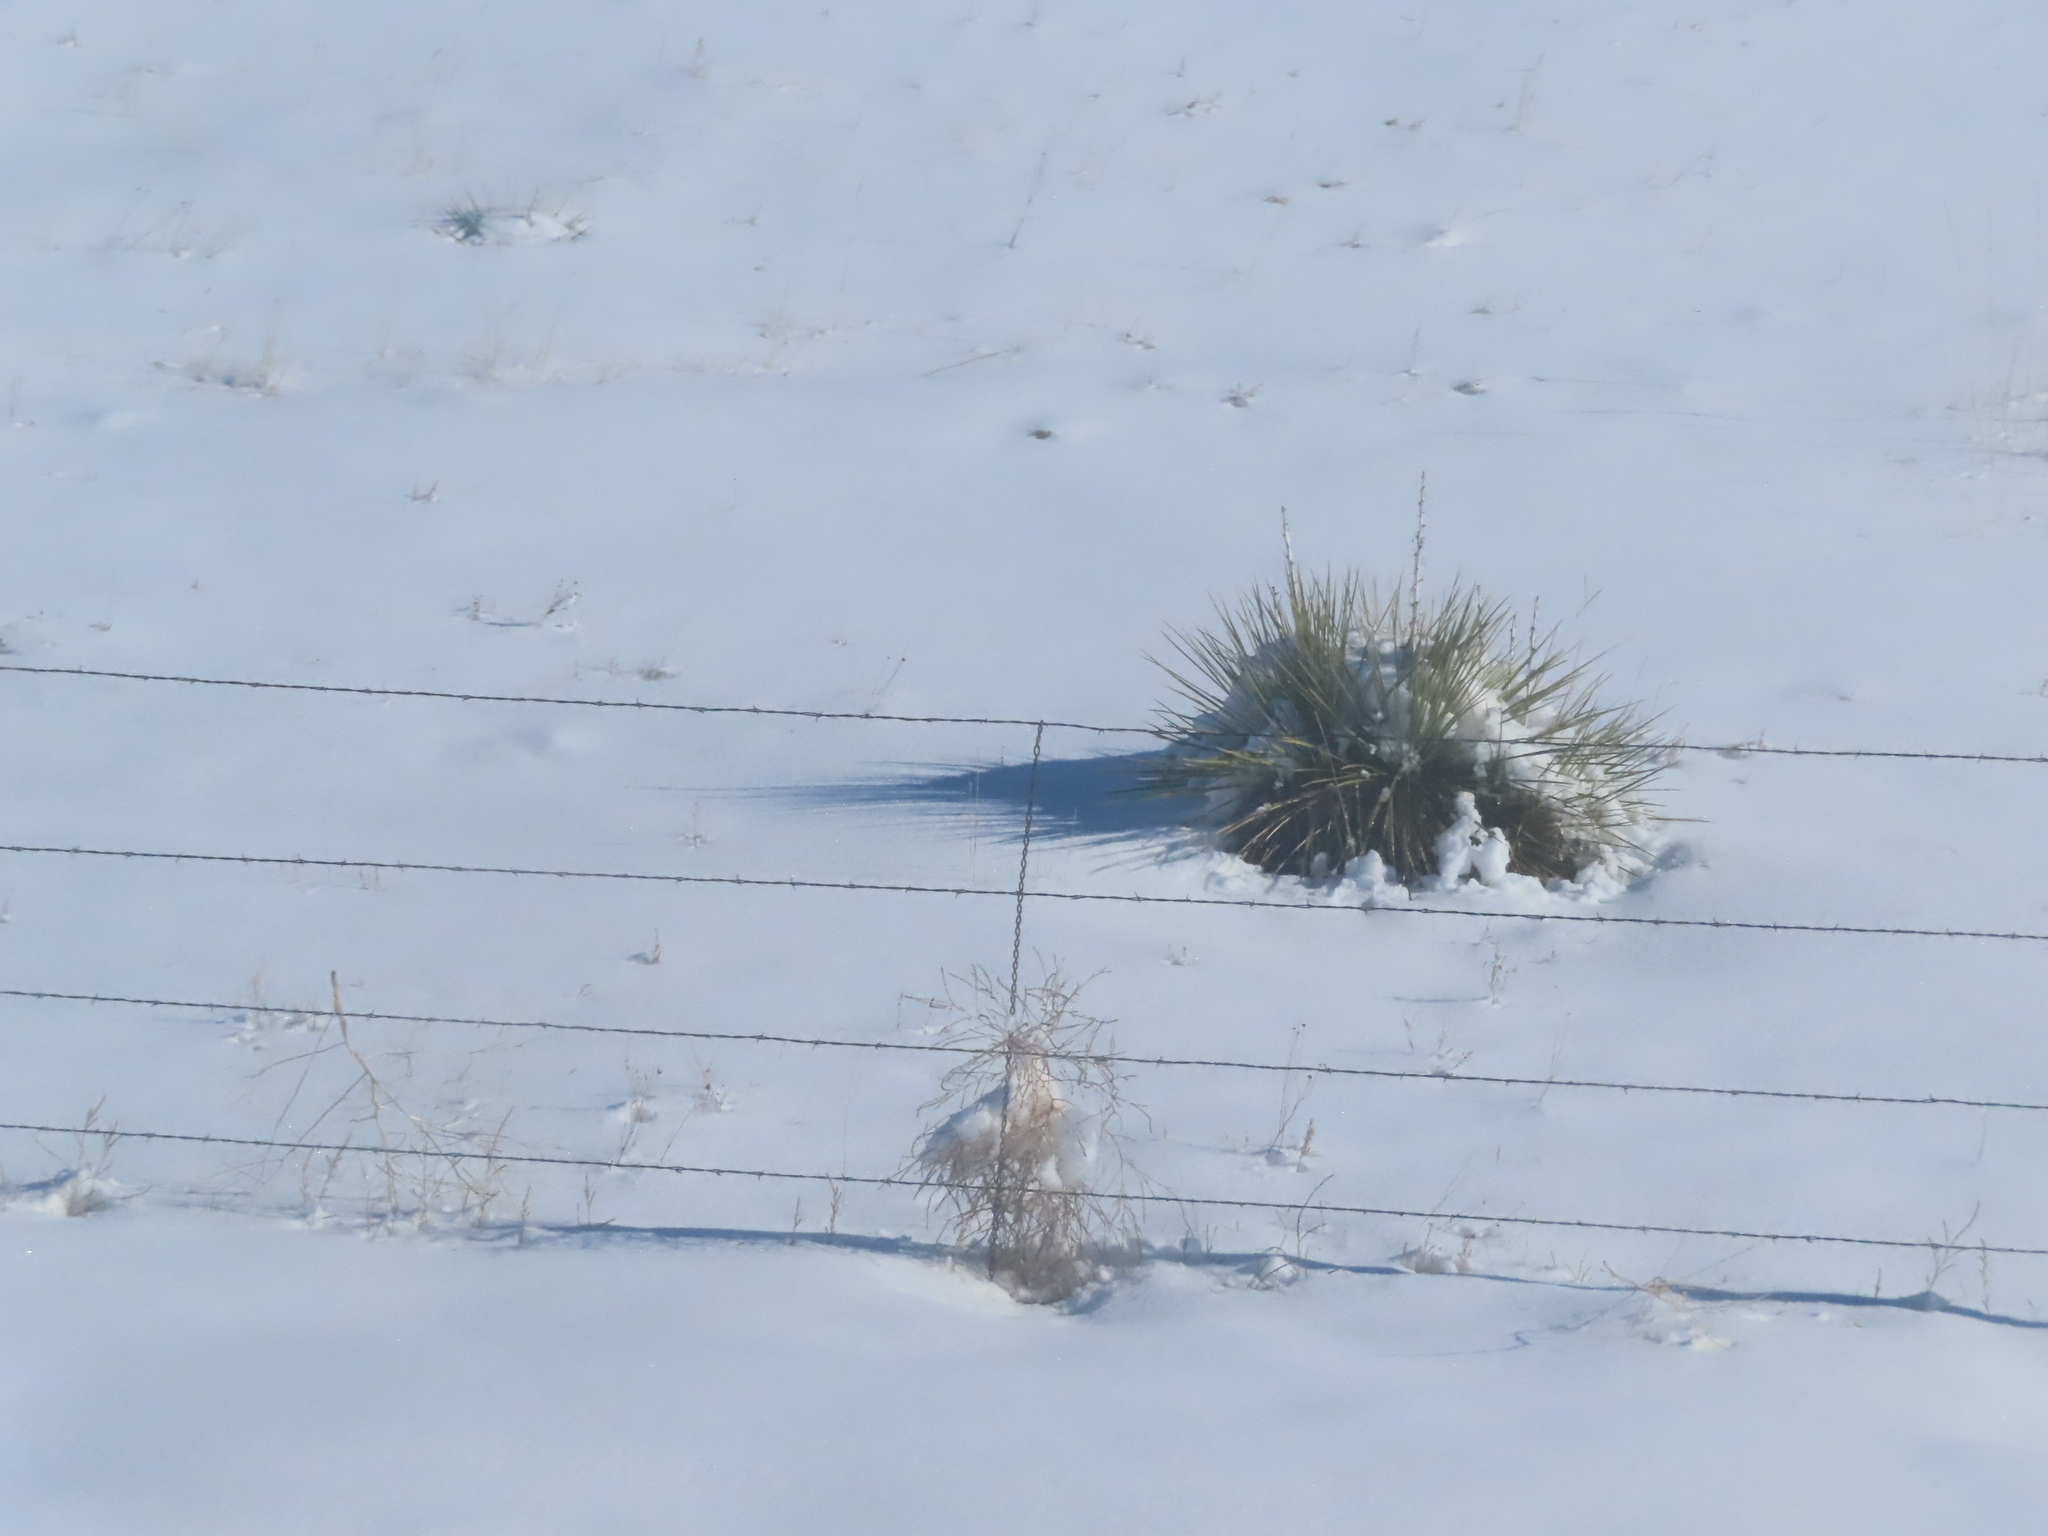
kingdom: Plantae
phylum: Tracheophyta
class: Liliopsida
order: Asparagales
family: Asparagaceae
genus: Yucca
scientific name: Yucca glauca
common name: Great plains yucca
